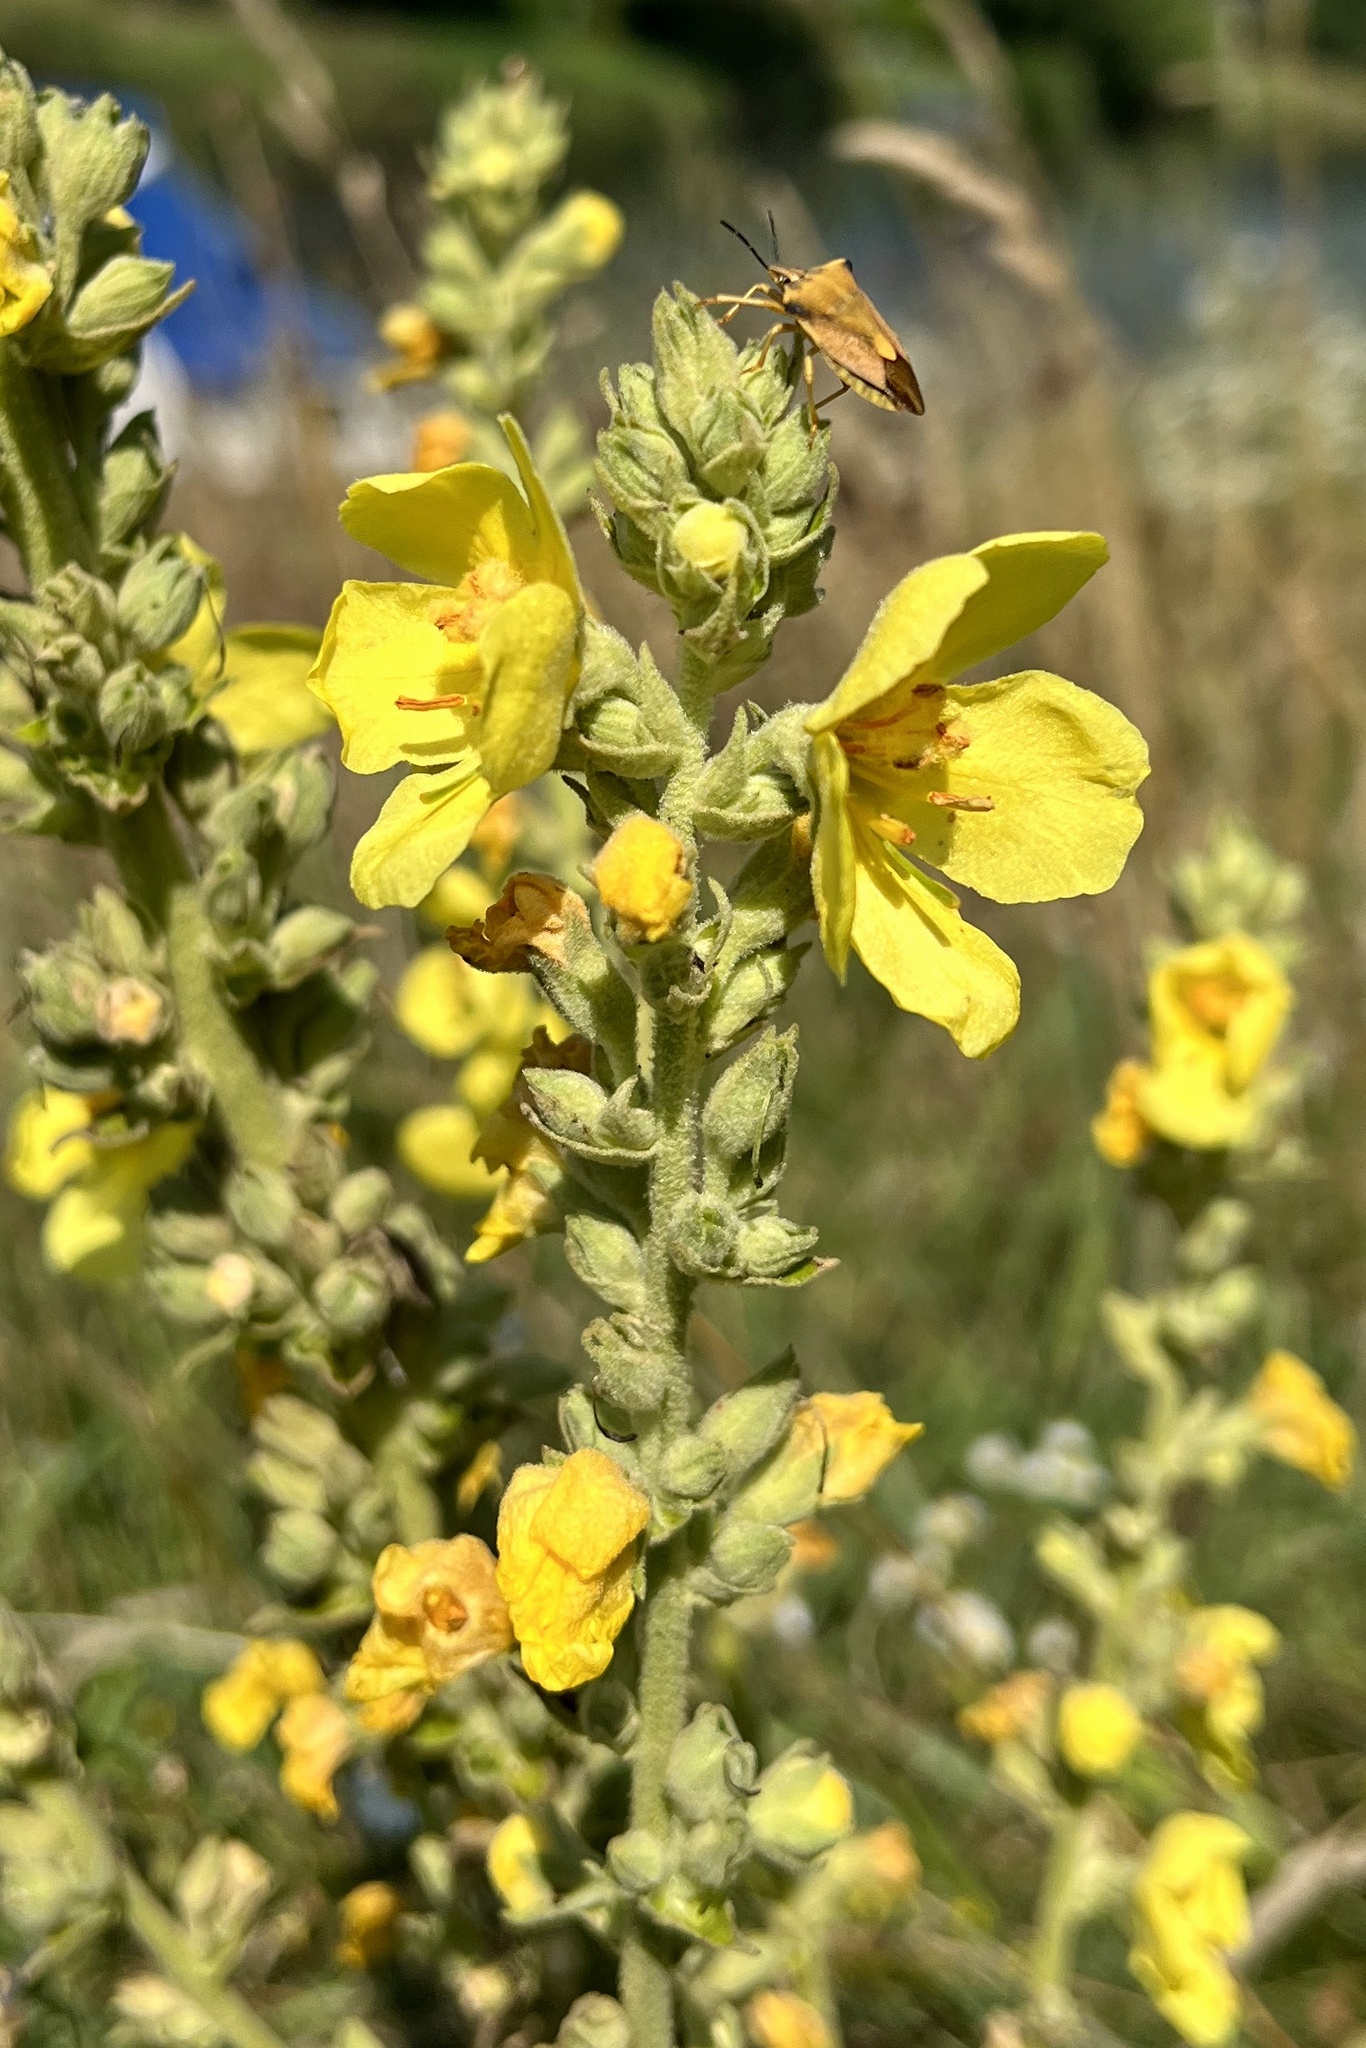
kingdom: Plantae
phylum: Tracheophyta
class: Magnoliopsida
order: Lamiales
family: Scrophulariaceae
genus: Verbascum
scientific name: Verbascum densiflorum
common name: Dense-flowered mullein
